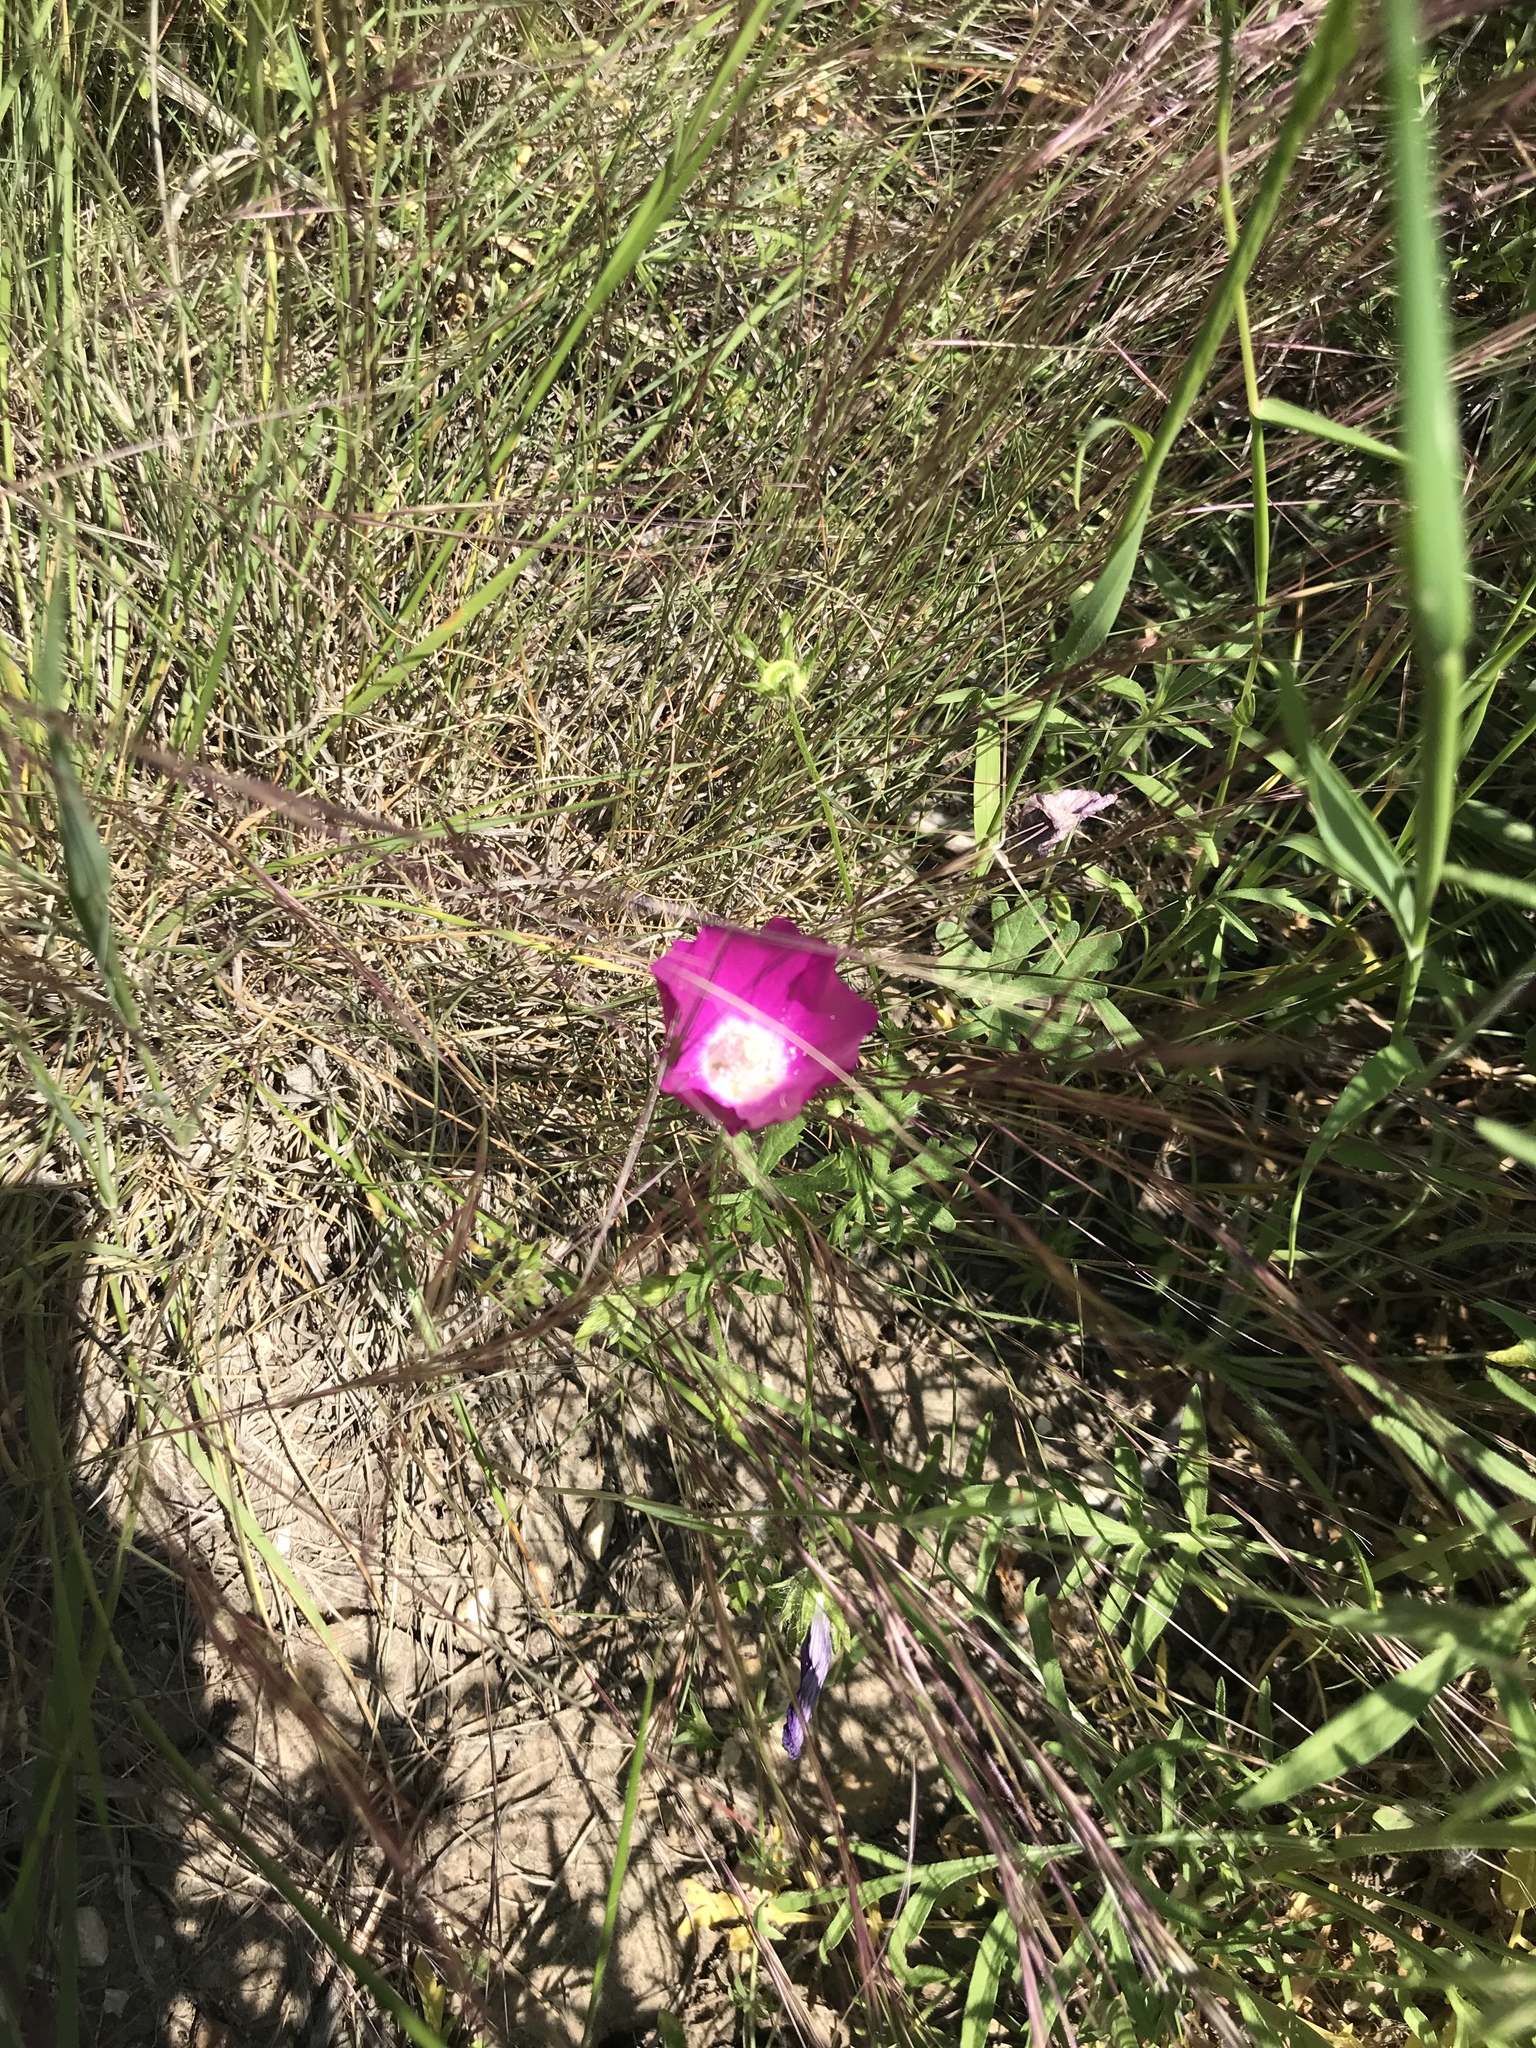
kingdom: Plantae
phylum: Tracheophyta
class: Magnoliopsida
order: Malvales
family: Malvaceae
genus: Callirhoe
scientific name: Callirhoe involucrata
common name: Purple poppy-mallow
